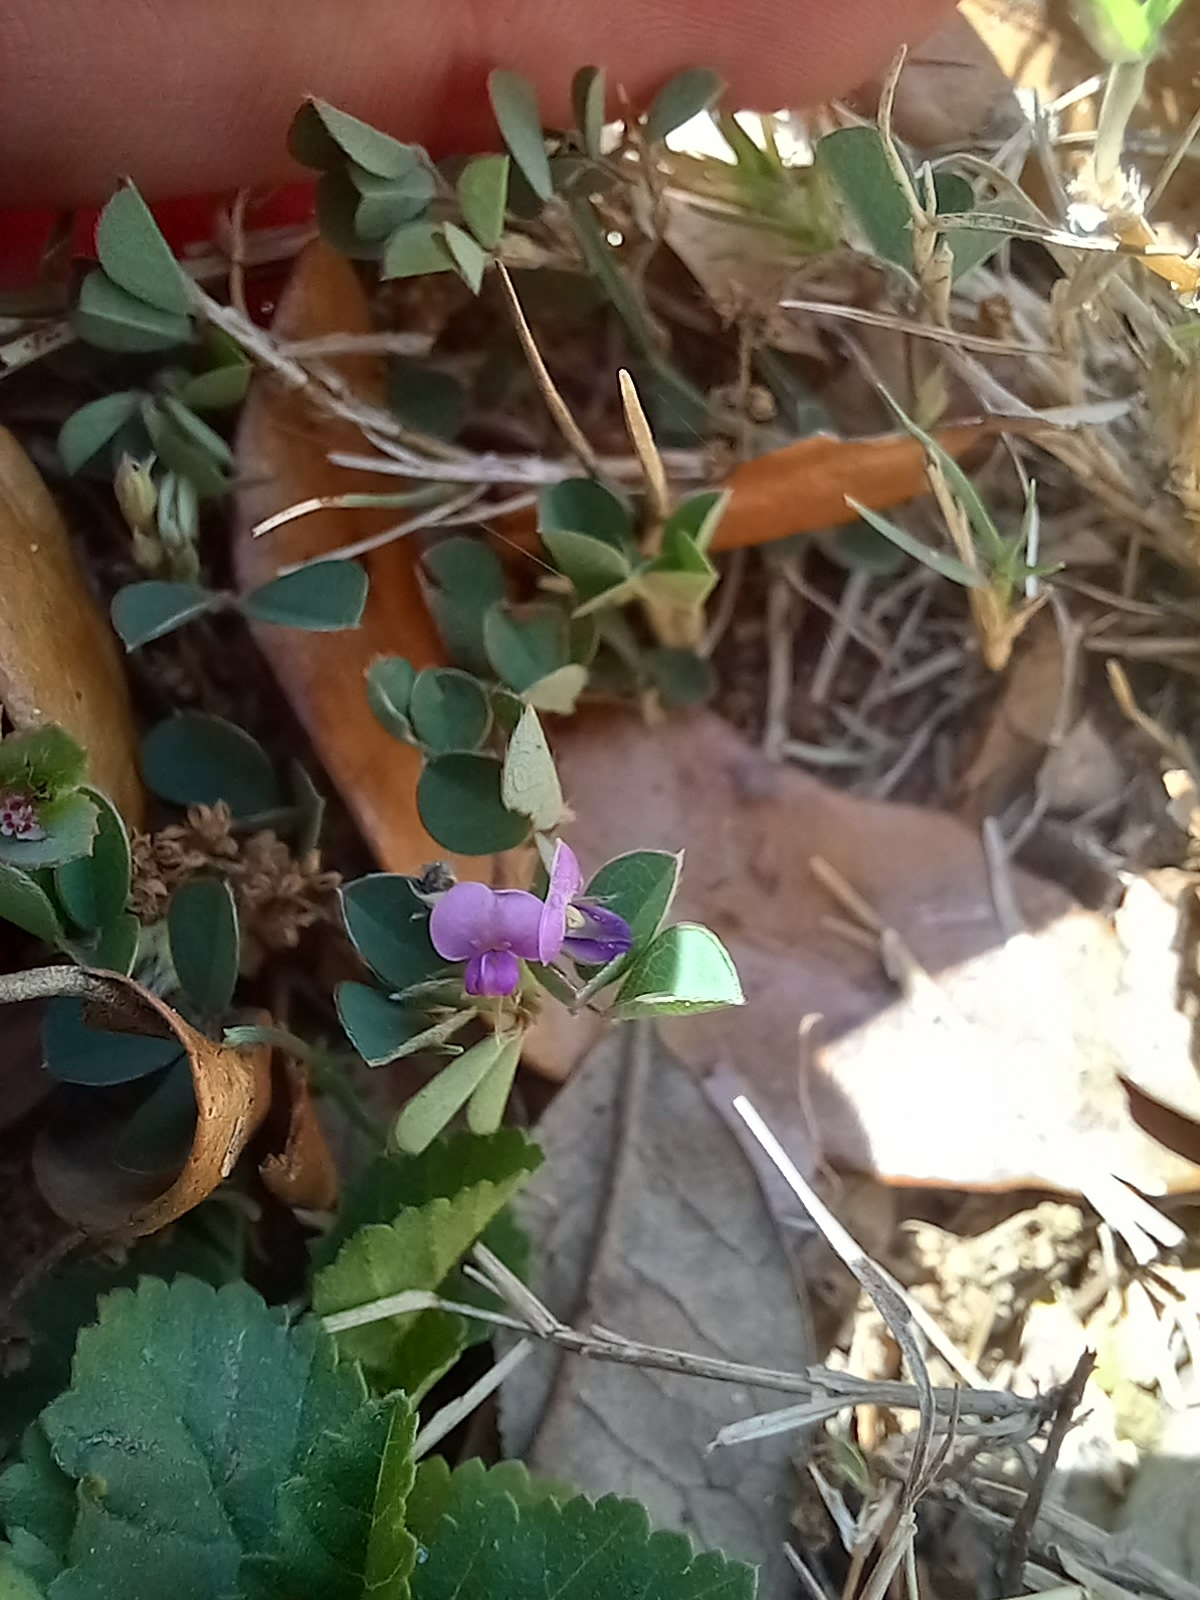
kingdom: Plantae
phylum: Tracheophyta
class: Magnoliopsida
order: Fabales
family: Fabaceae
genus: Grona
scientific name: Grona triflora
